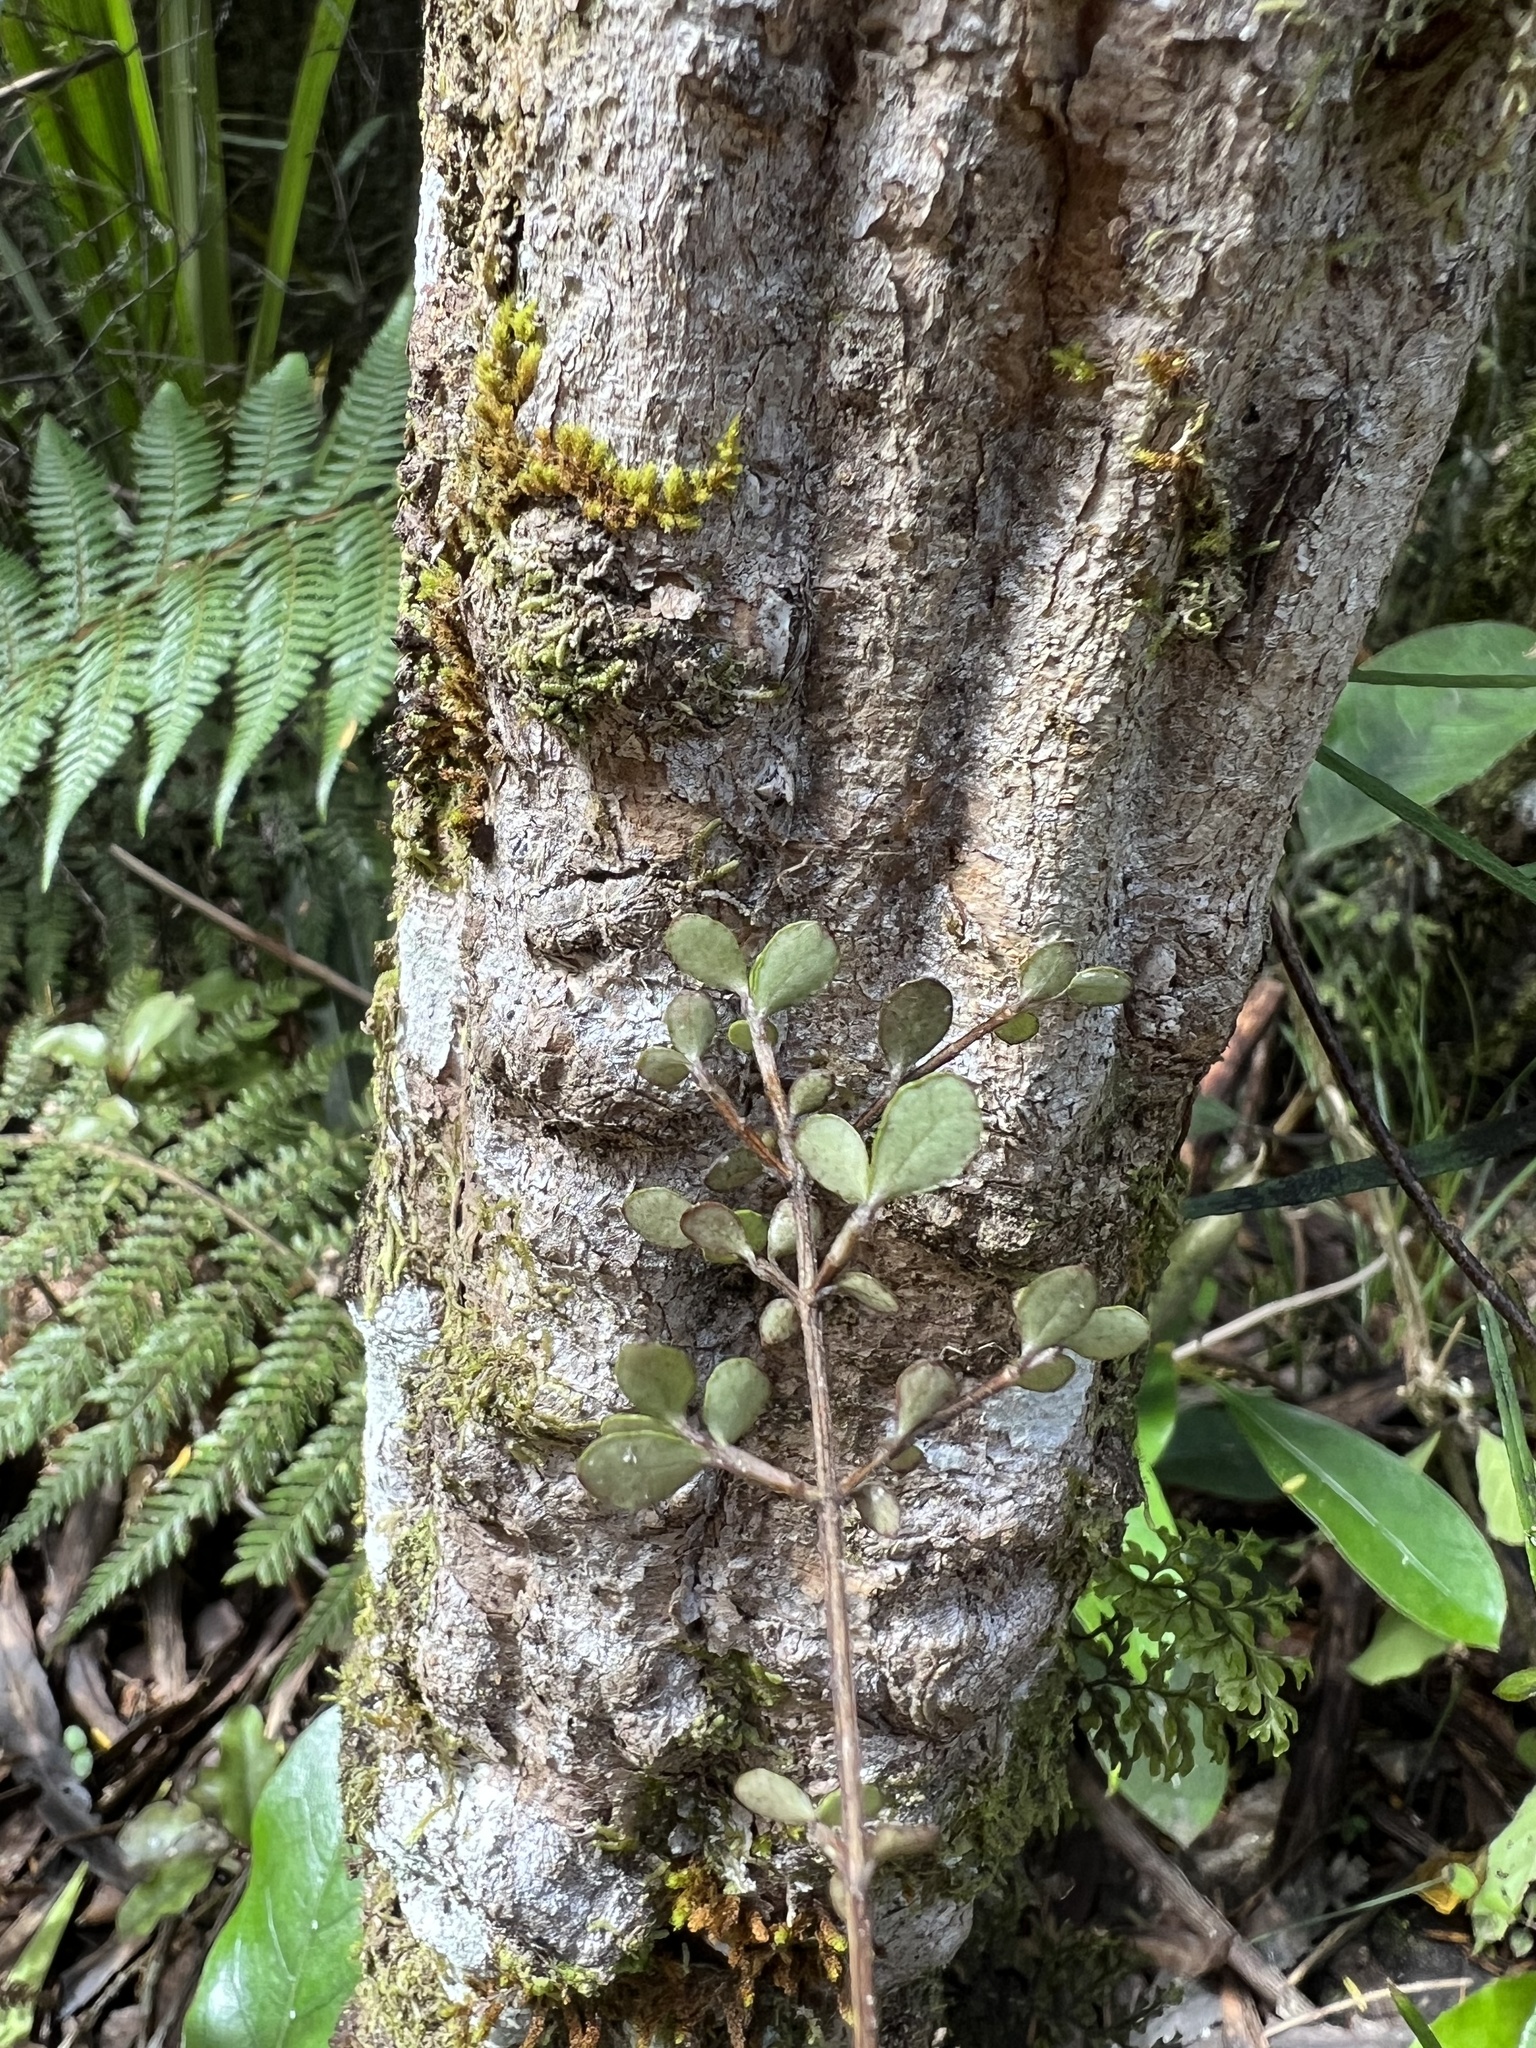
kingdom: Plantae
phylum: Tracheophyta
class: Magnoliopsida
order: Myrtales
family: Myrtaceae
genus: Neomyrtus
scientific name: Neomyrtus pedunculata
